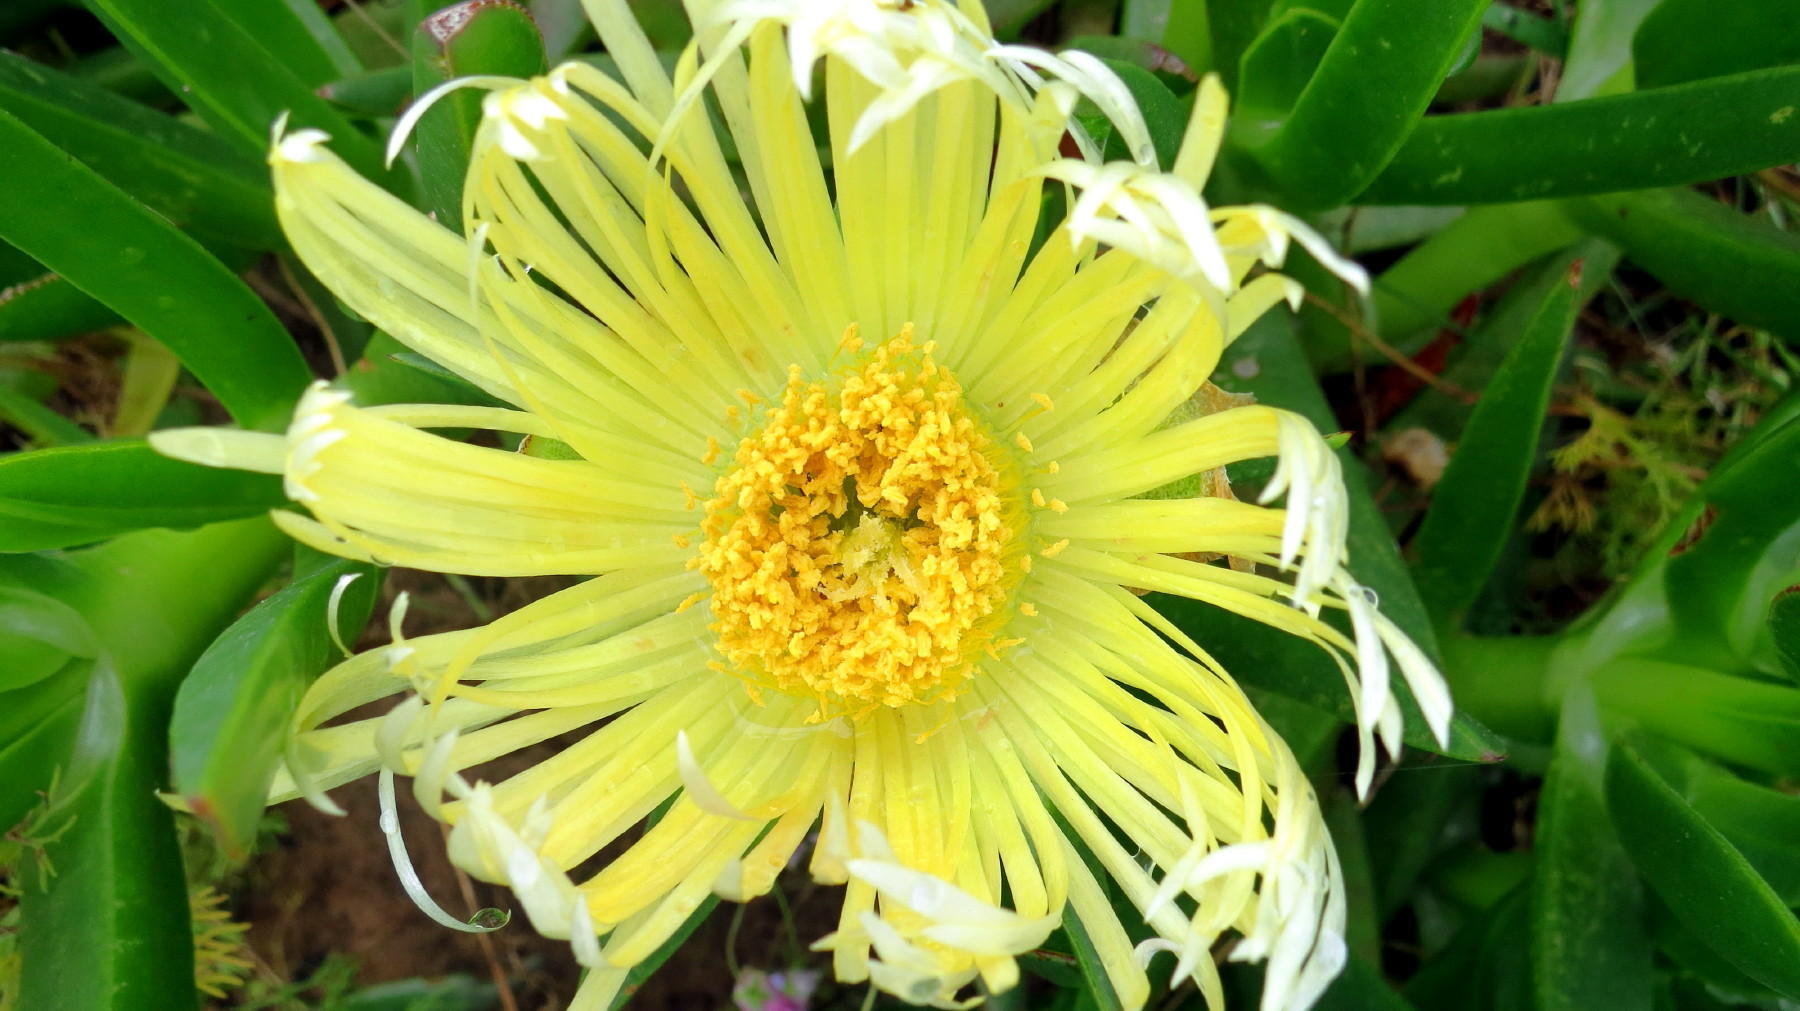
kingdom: Plantae
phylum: Tracheophyta
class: Magnoliopsida
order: Caryophyllales
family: Aizoaceae
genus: Carpobrotus
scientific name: Carpobrotus edulis
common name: Hottentot-fig
